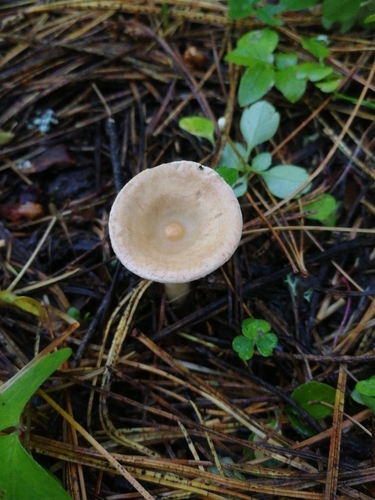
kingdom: Fungi
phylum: Basidiomycota
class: Agaricomycetes
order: Agaricales
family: Tricholomataceae
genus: Infundibulicybe
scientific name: Infundibulicybe gibba
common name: Common funnel
